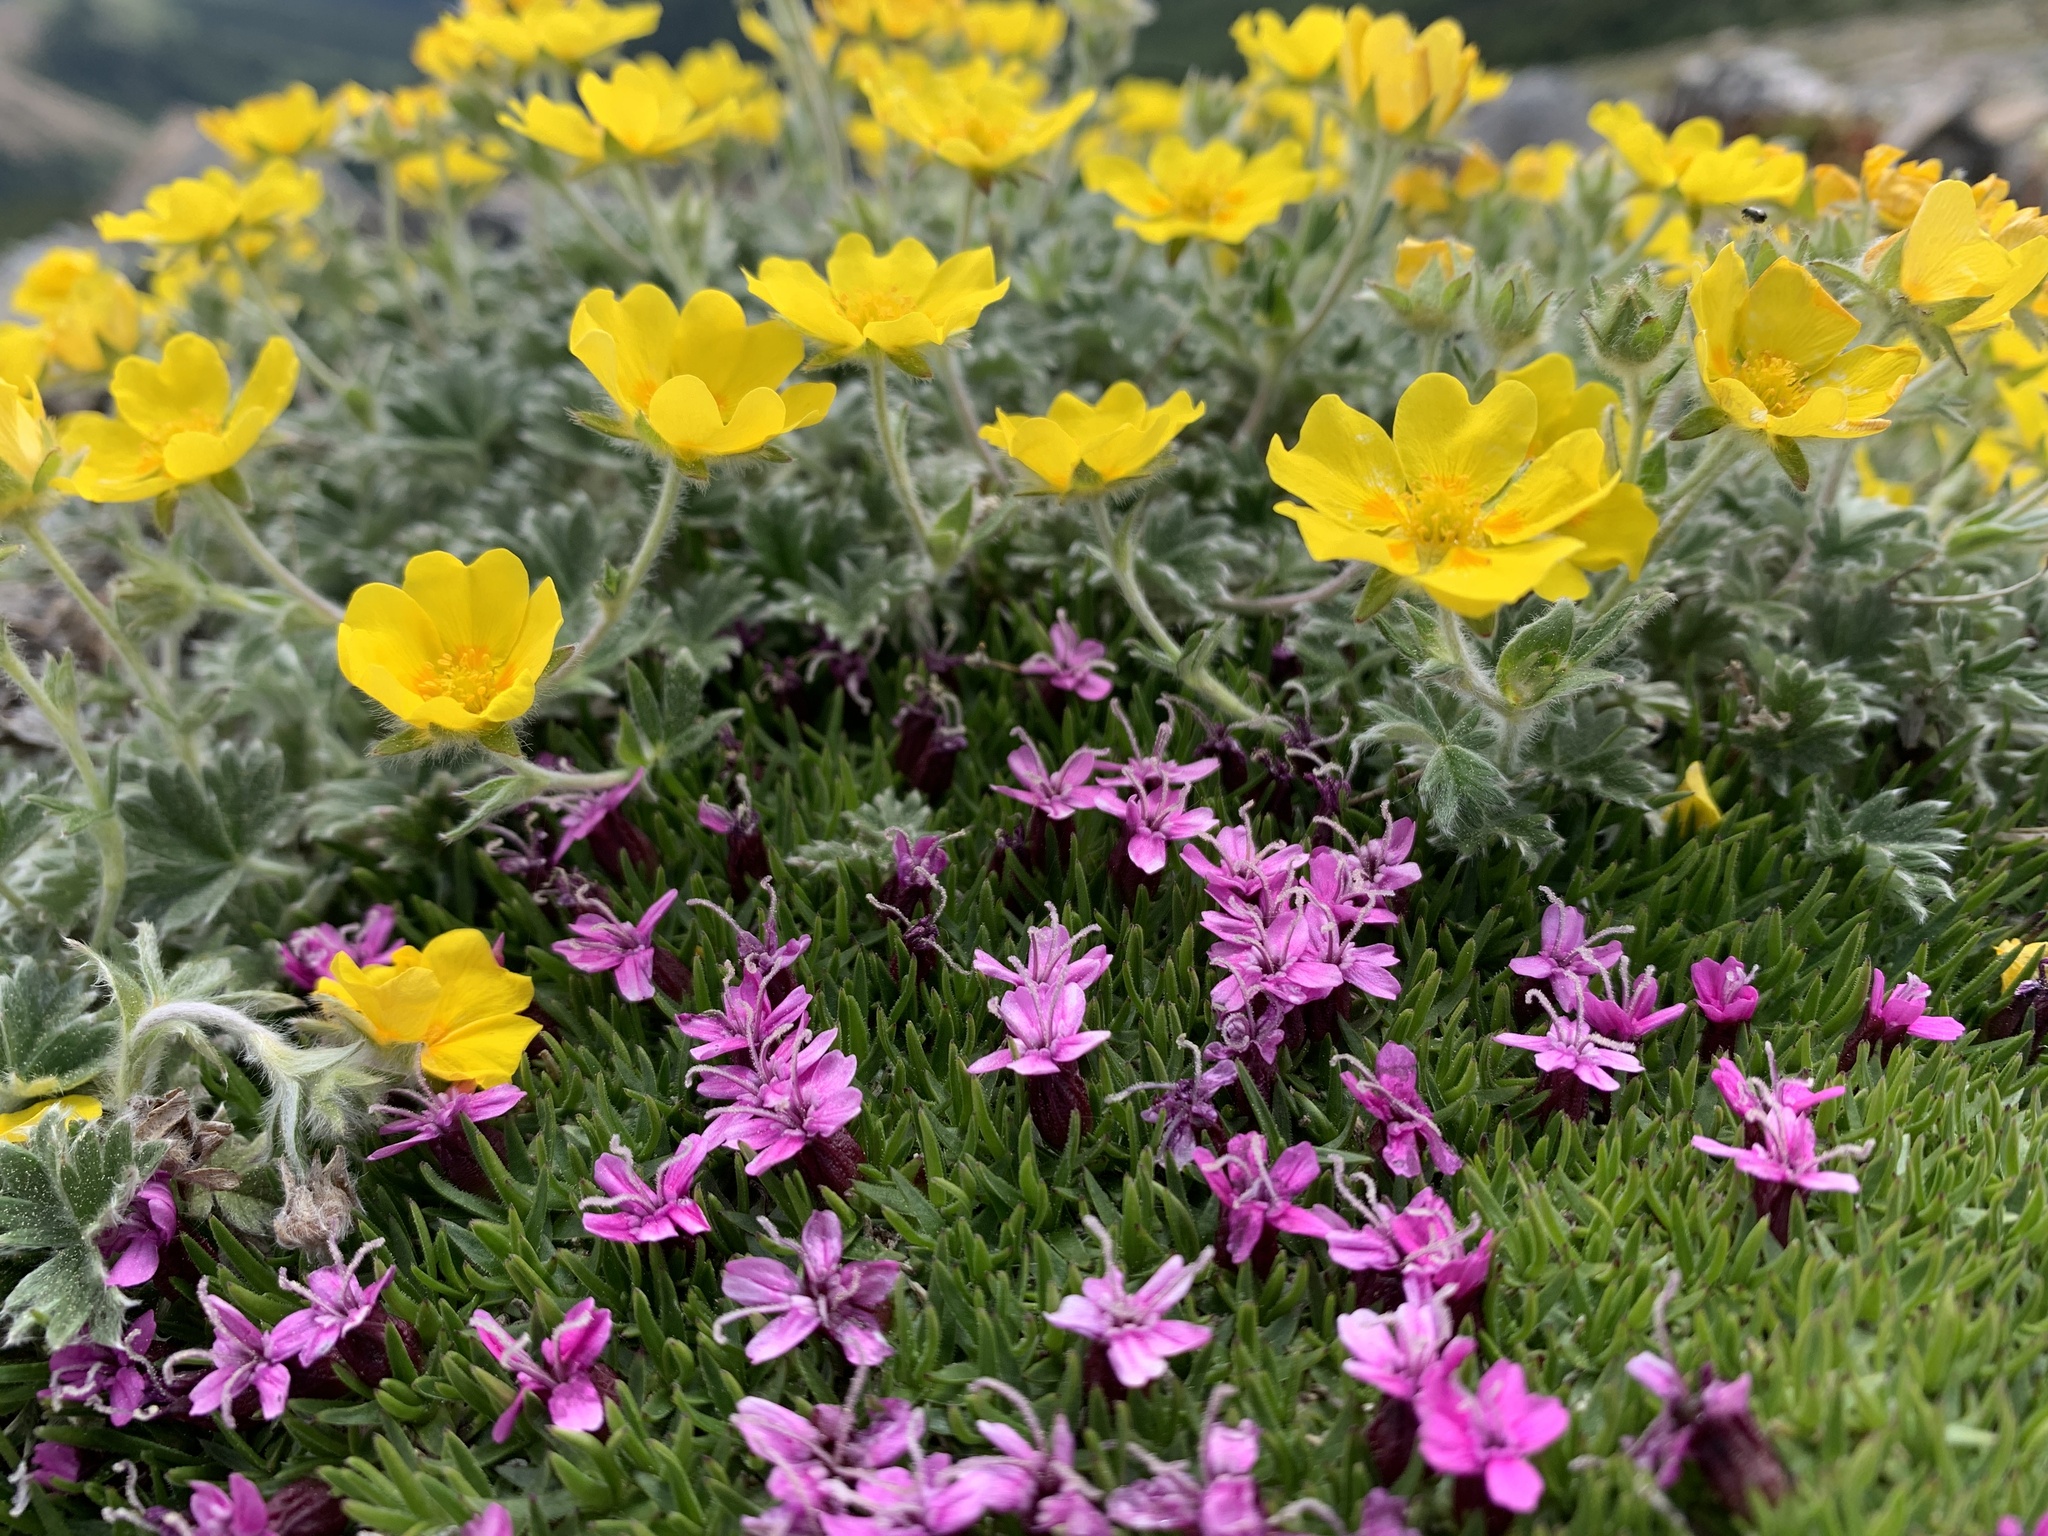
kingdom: Plantae
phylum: Tracheophyta
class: Magnoliopsida
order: Caryophyllales
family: Caryophyllaceae
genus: Silene
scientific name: Silene acaulis
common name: Moss campion
